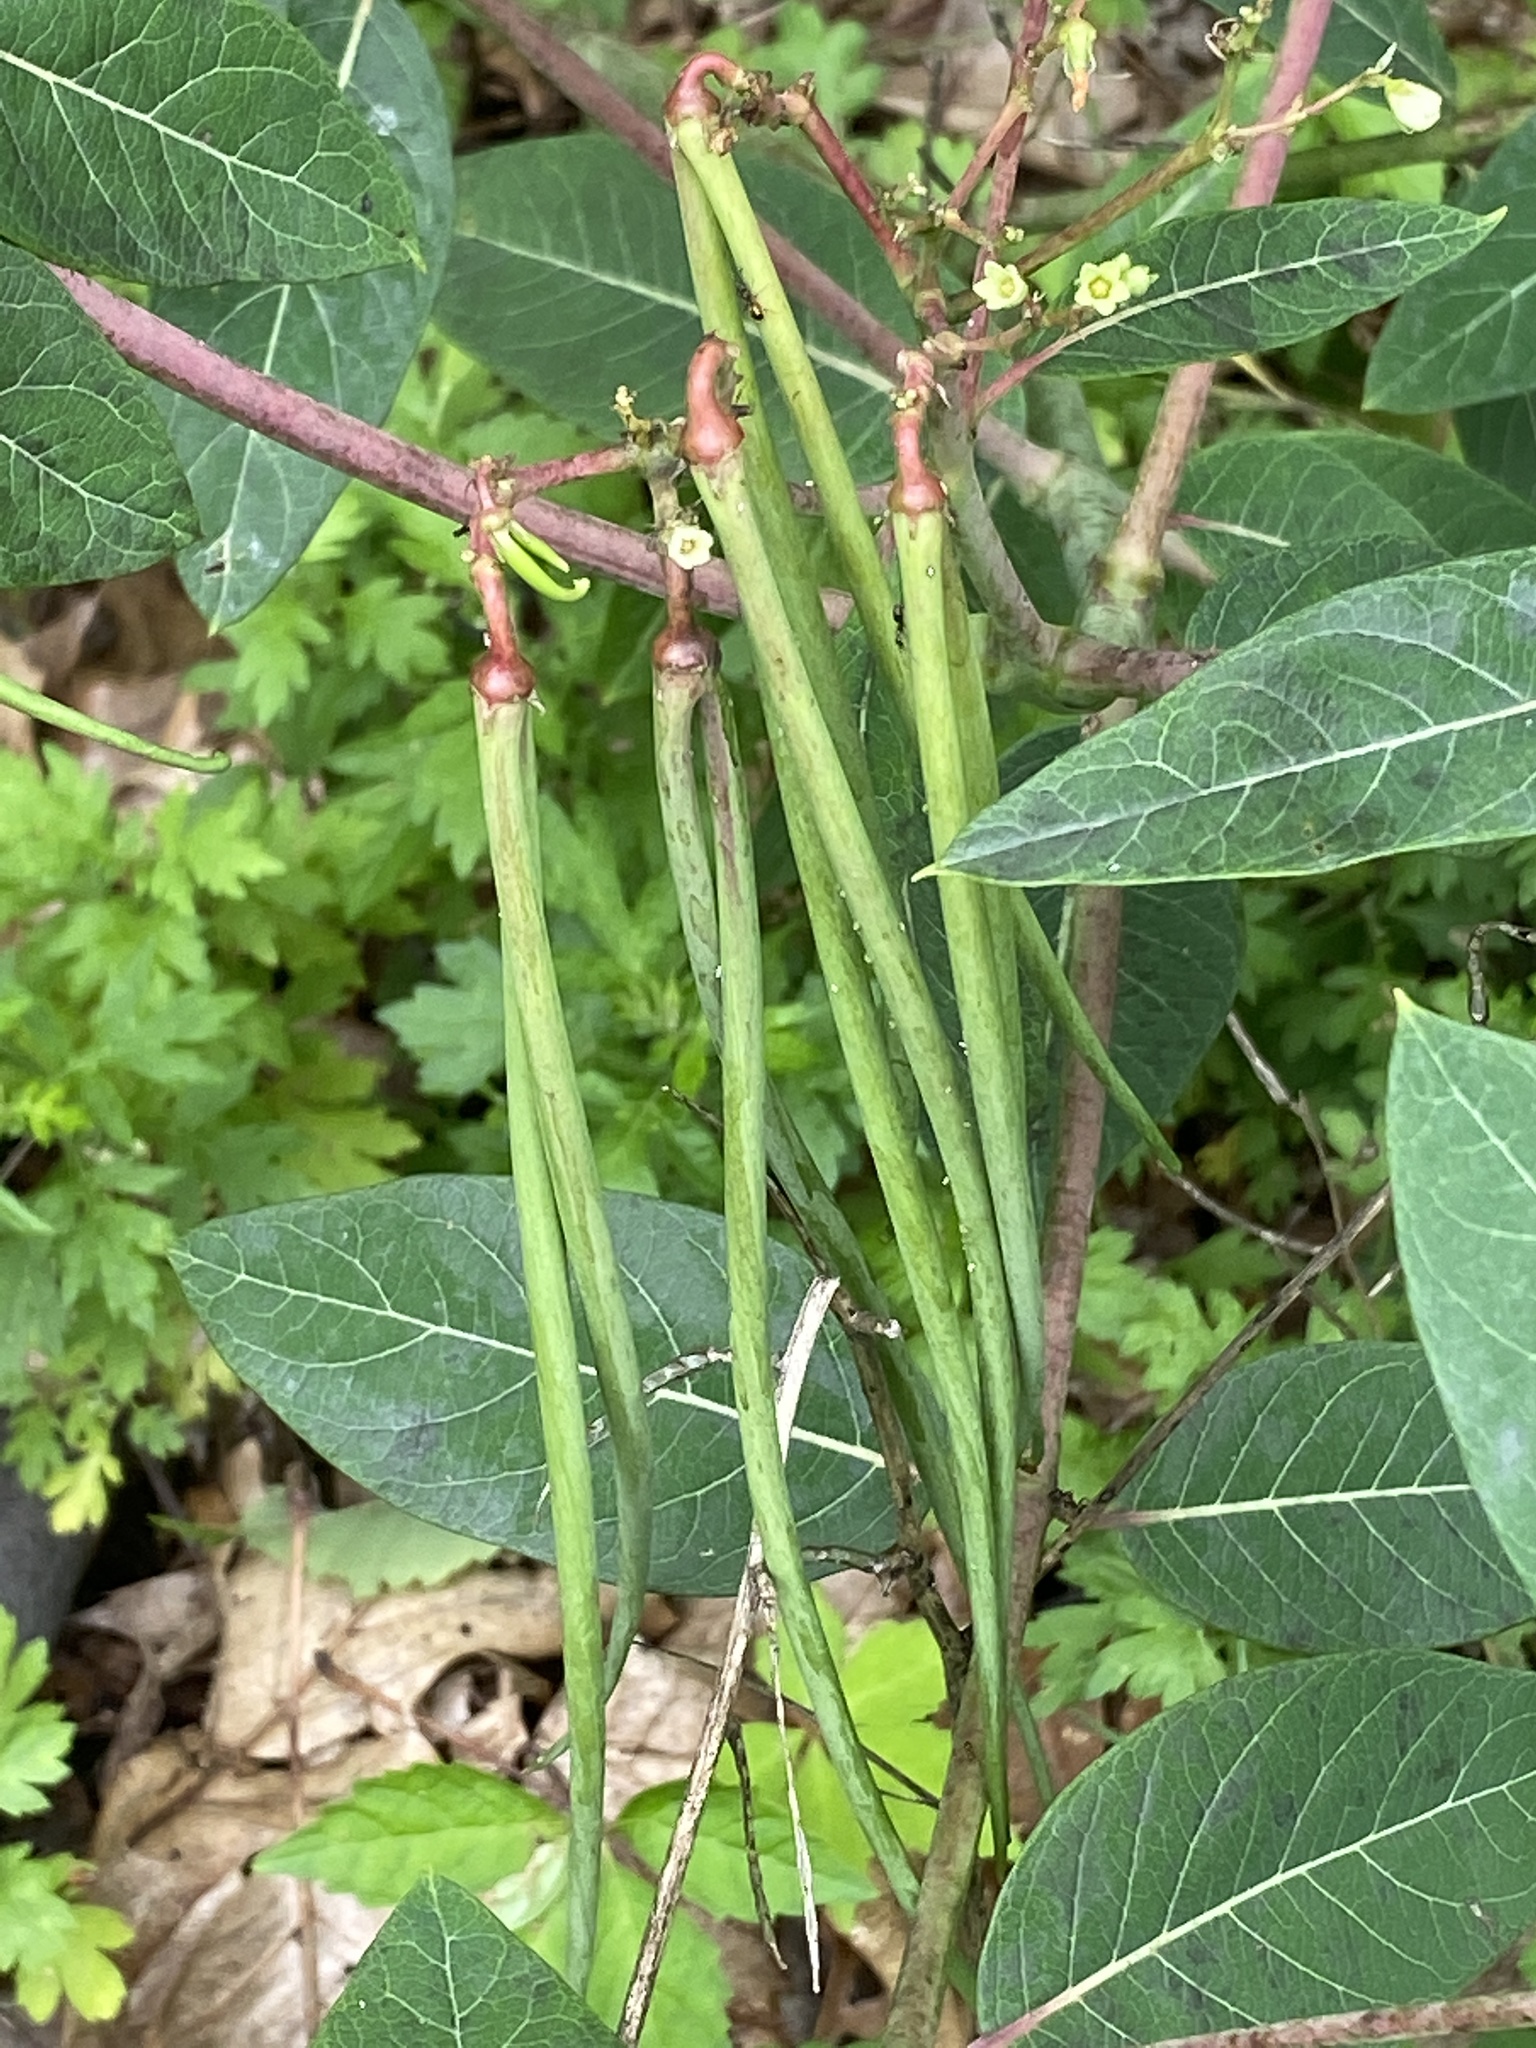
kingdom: Plantae
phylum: Tracheophyta
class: Magnoliopsida
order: Gentianales
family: Apocynaceae
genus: Apocynum
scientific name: Apocynum cannabinum
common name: Hemp dogbane
